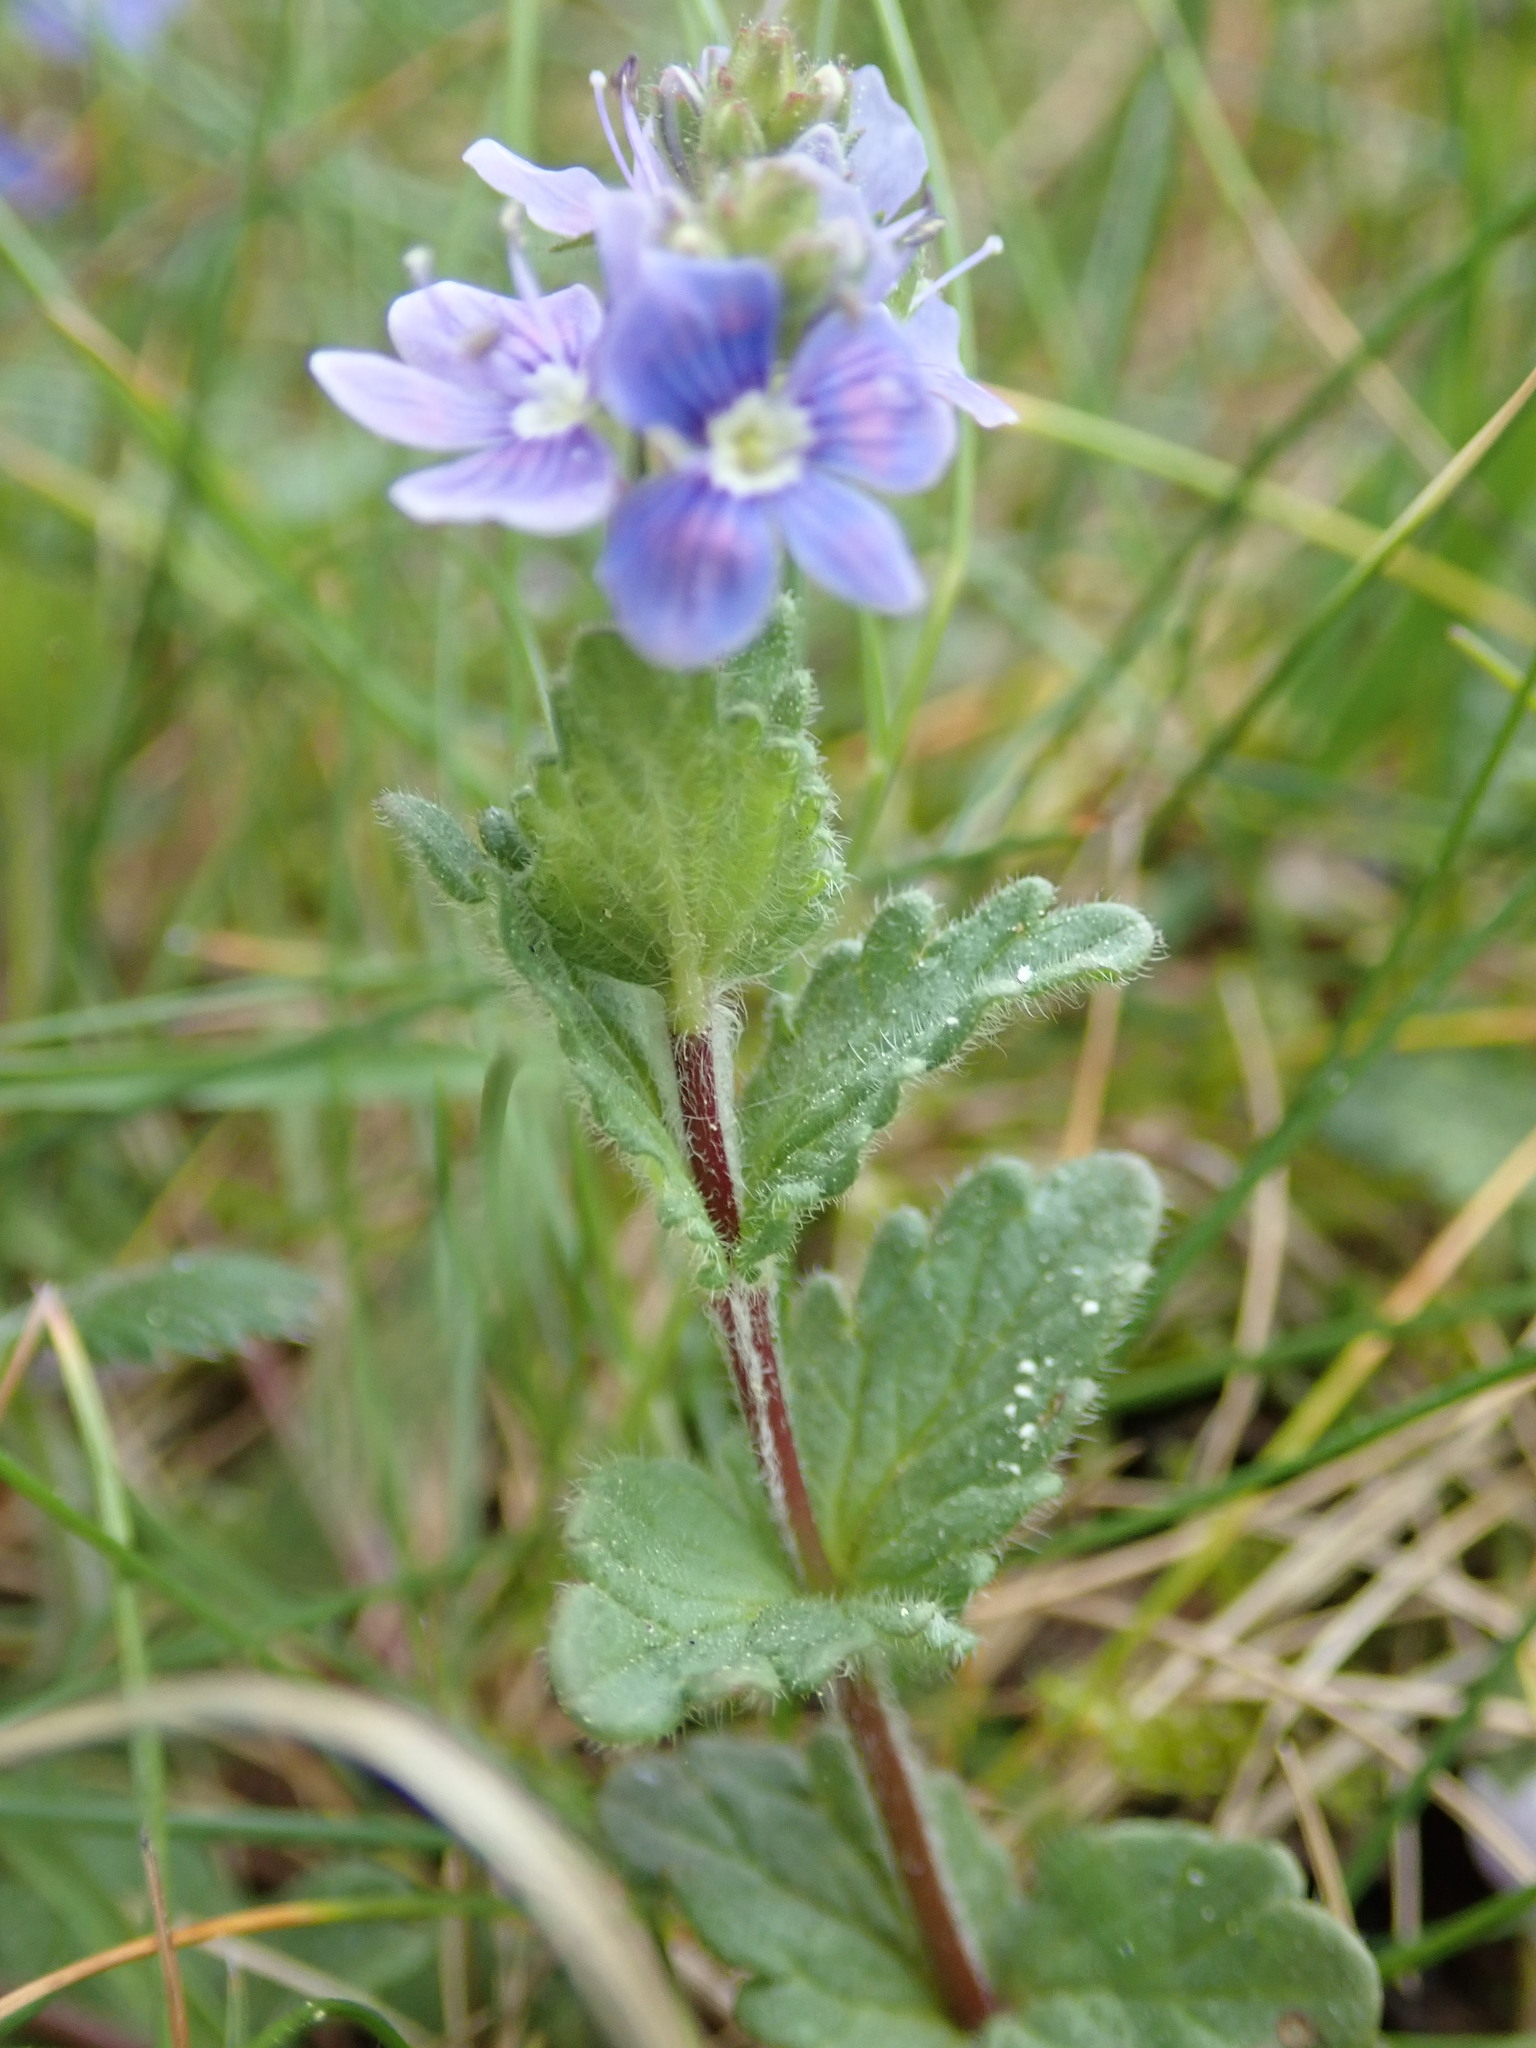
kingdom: Plantae
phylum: Tracheophyta
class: Magnoliopsida
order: Lamiales
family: Plantaginaceae
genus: Veronica
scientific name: Veronica chamaedrys
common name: Germander speedwell
